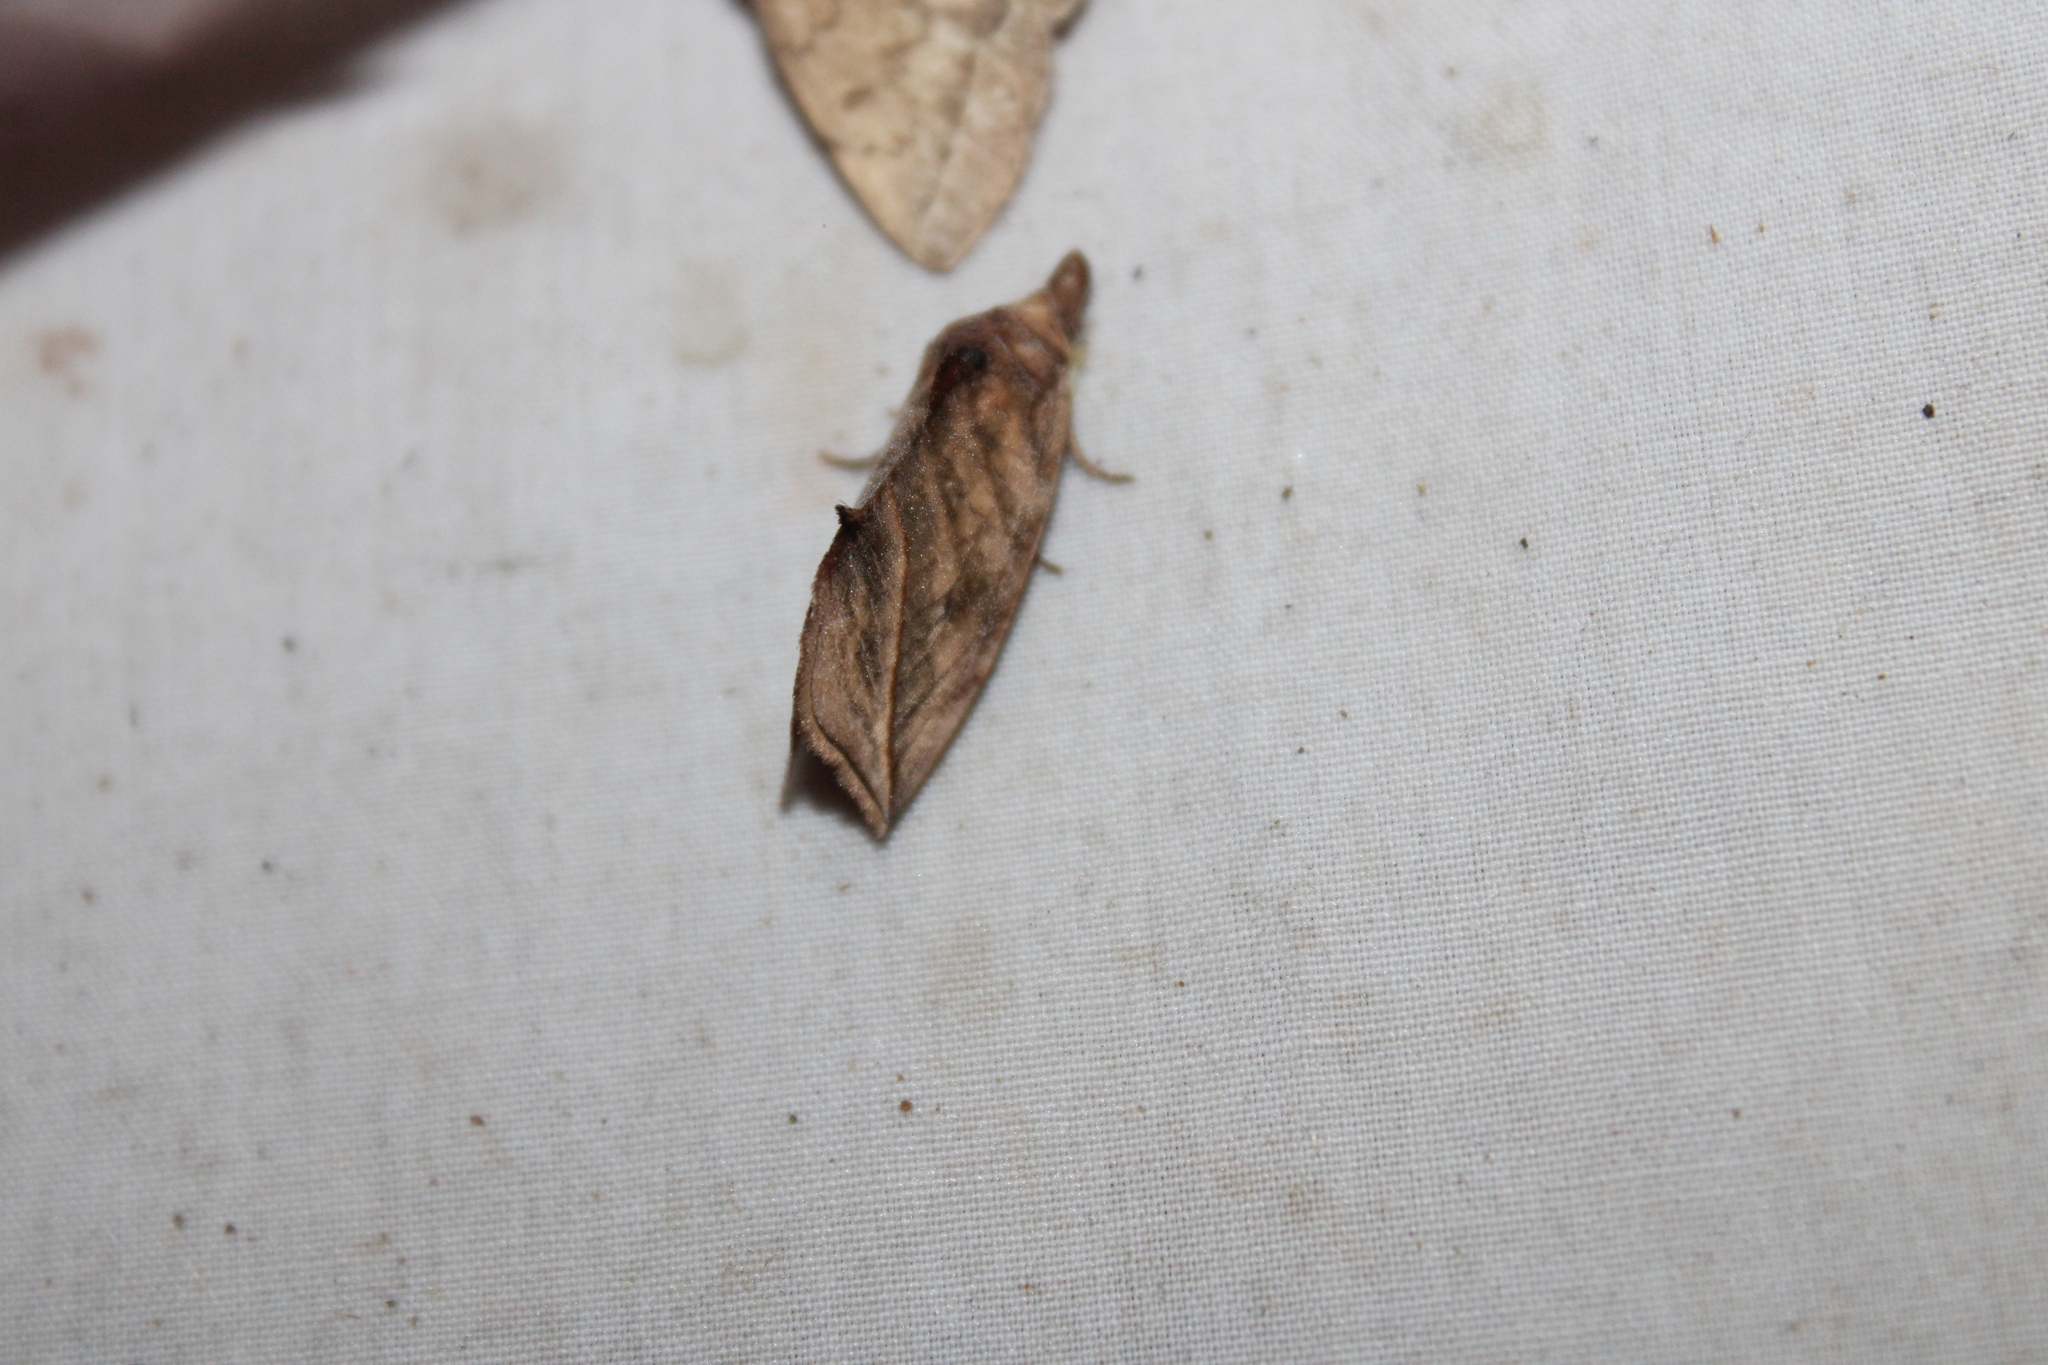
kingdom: Animalia
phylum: Arthropoda
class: Insecta
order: Lepidoptera
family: Erebidae
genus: Calyptra
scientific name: Calyptra canadensis
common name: Canadian owlet
